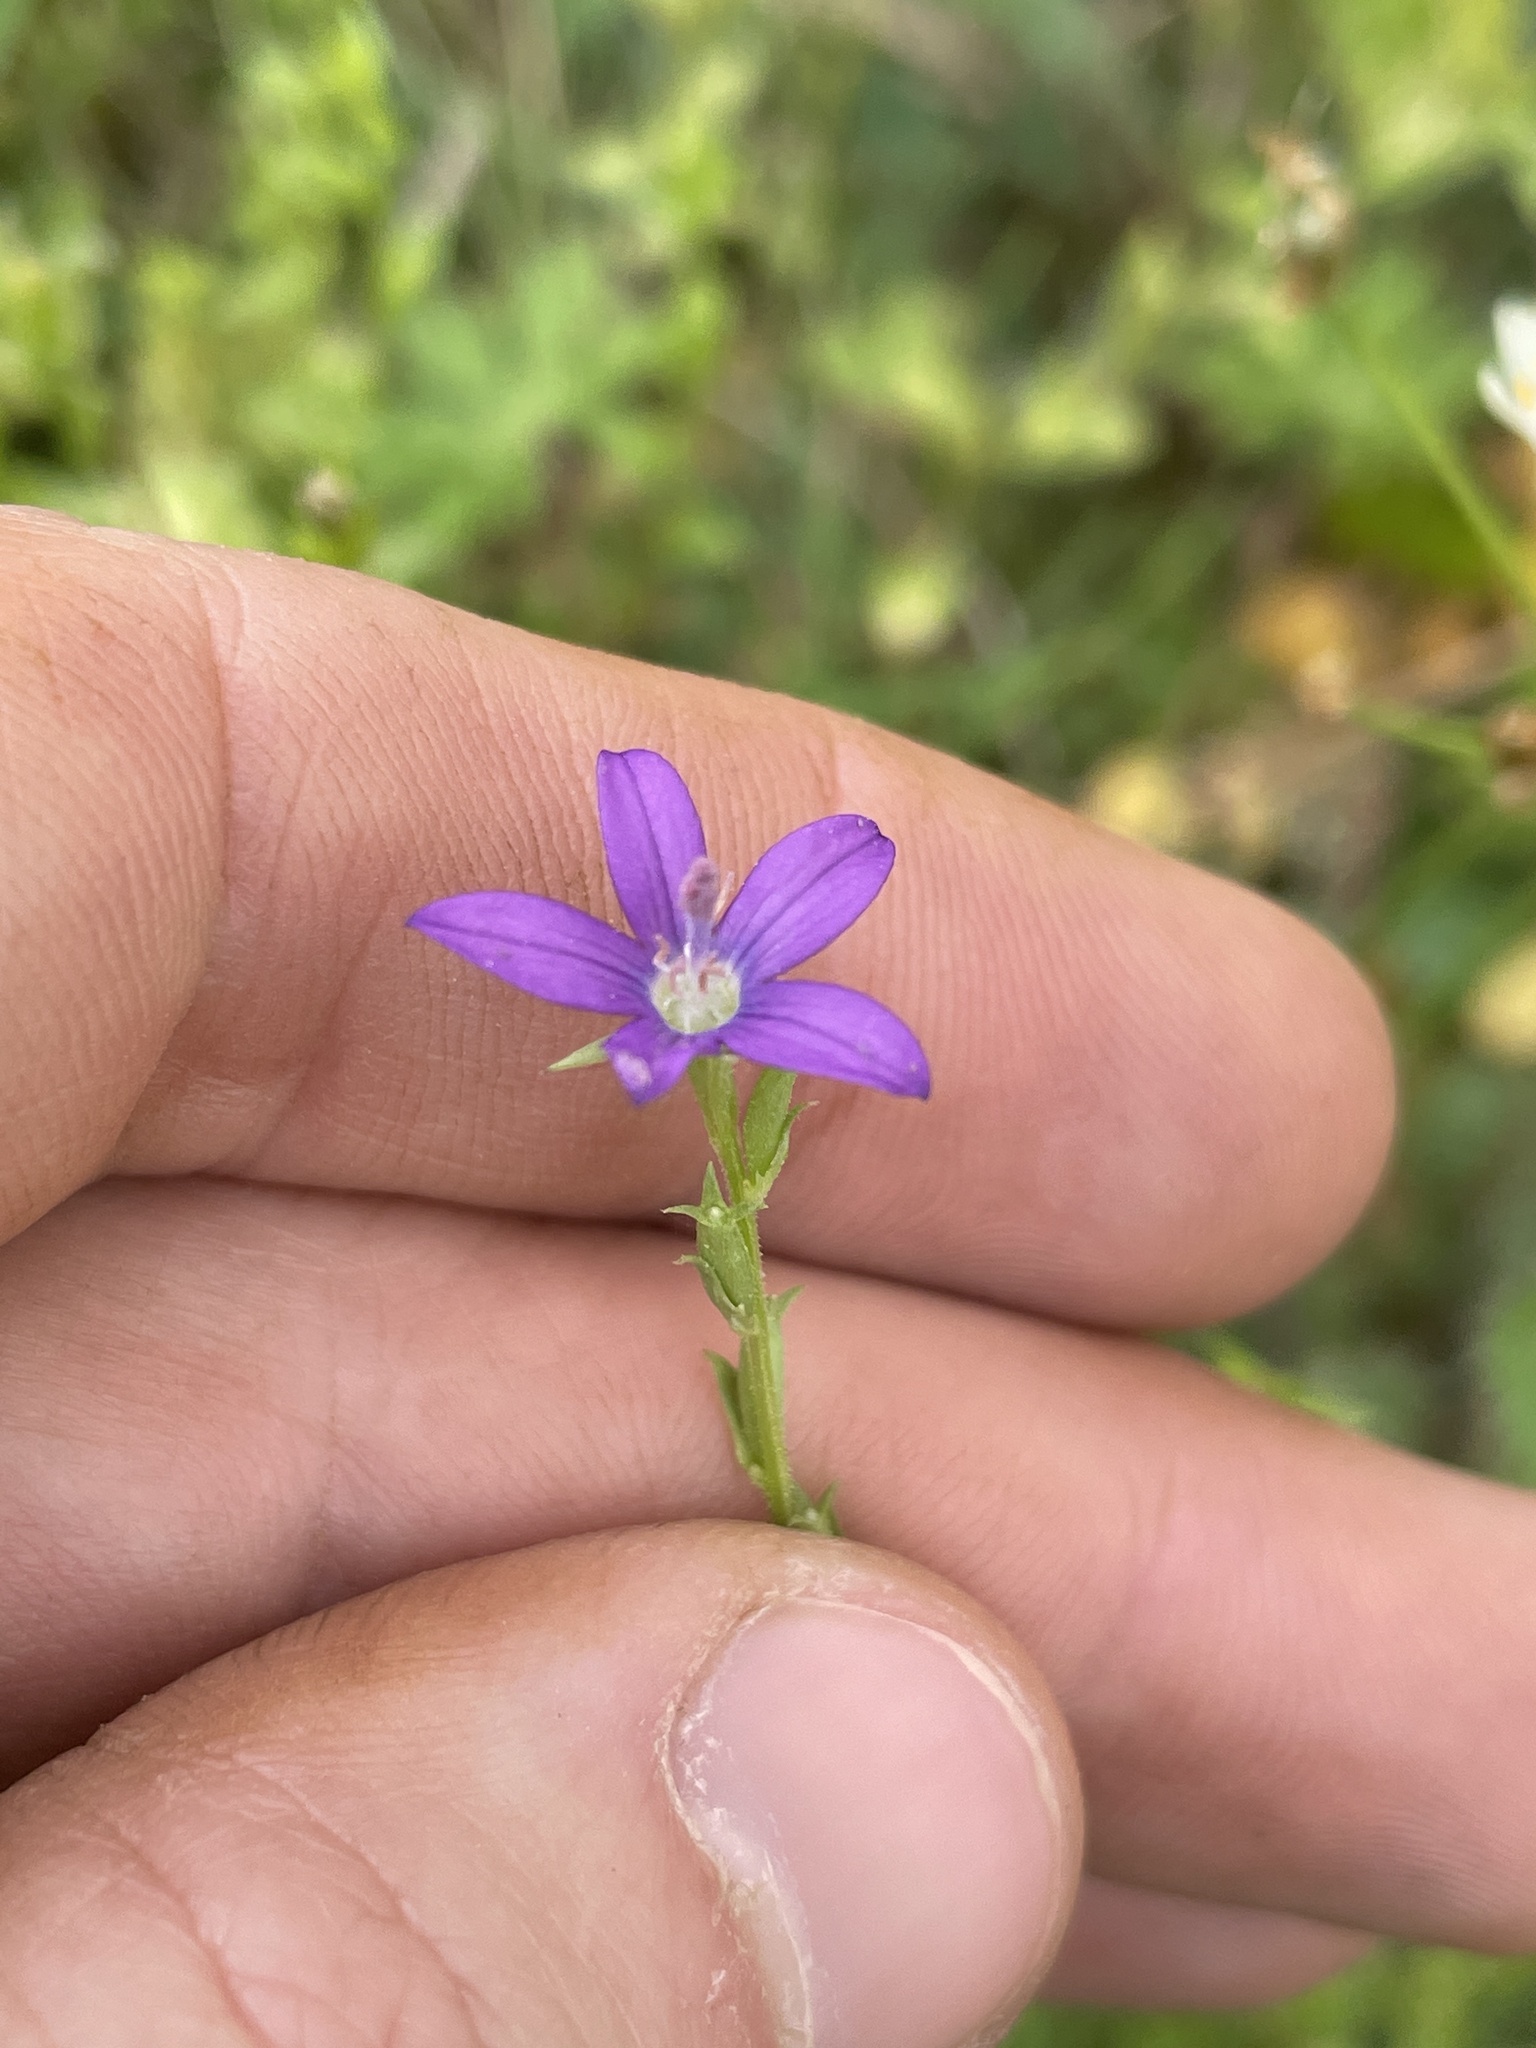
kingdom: Plantae
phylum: Tracheophyta
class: Magnoliopsida
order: Asterales
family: Campanulaceae
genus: Triodanis
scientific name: Triodanis biflora
